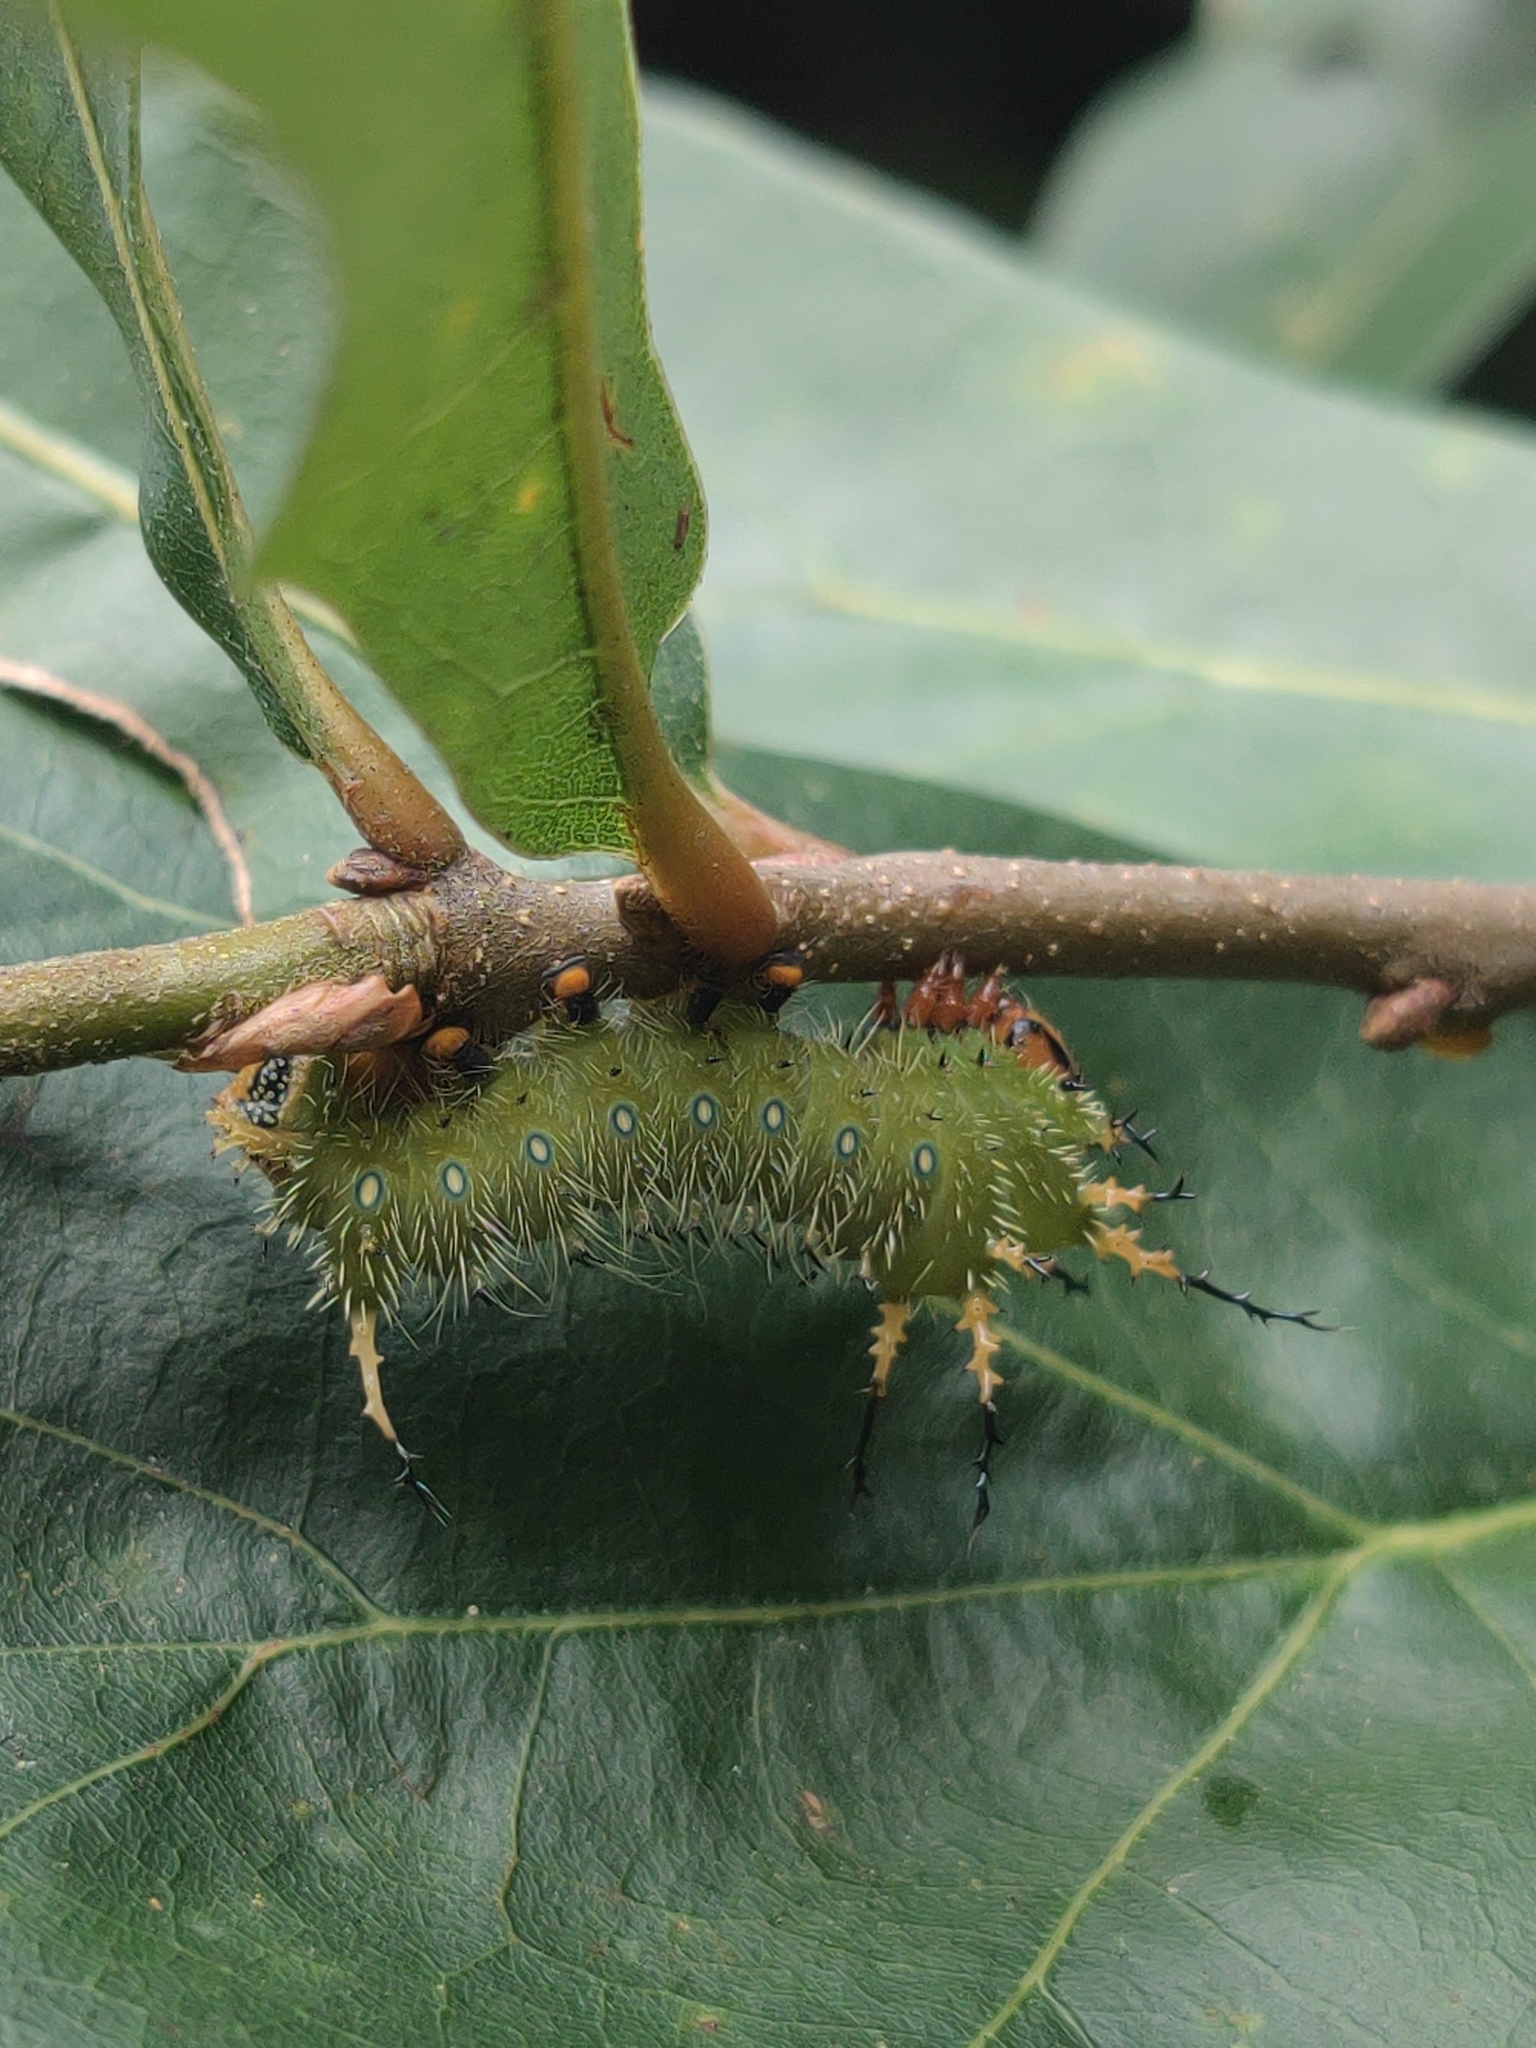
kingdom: Animalia
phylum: Arthropoda
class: Insecta
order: Lepidoptera
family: Saturniidae
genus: Eacles
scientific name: Eacles imperialis
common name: Imperial moth
